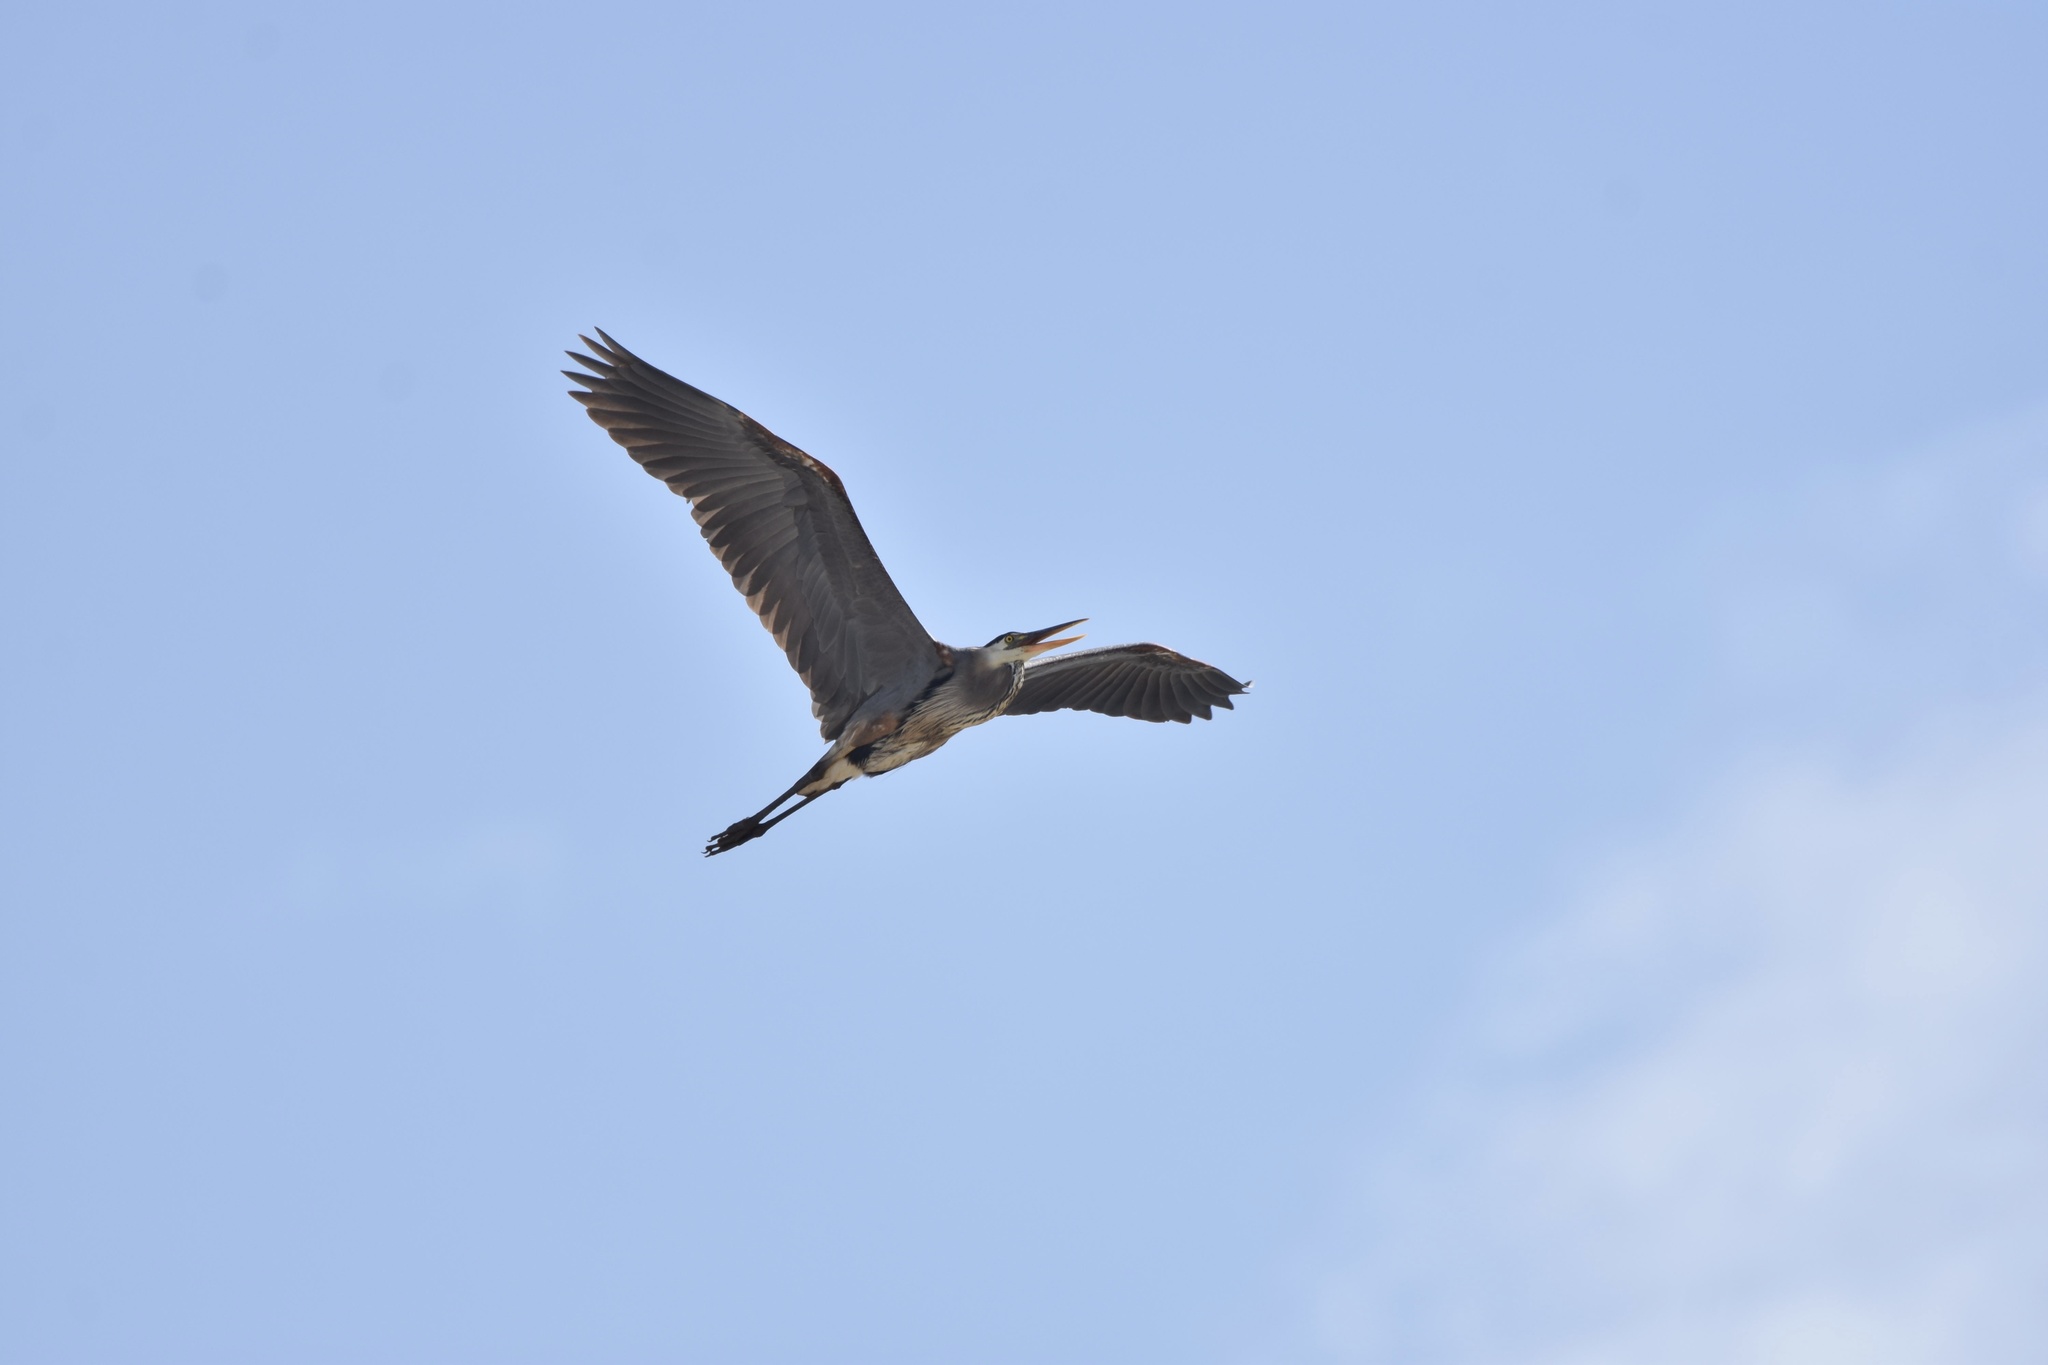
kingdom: Animalia
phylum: Chordata
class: Aves
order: Pelecaniformes
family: Ardeidae
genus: Ardea
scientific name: Ardea herodias
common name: Great blue heron
